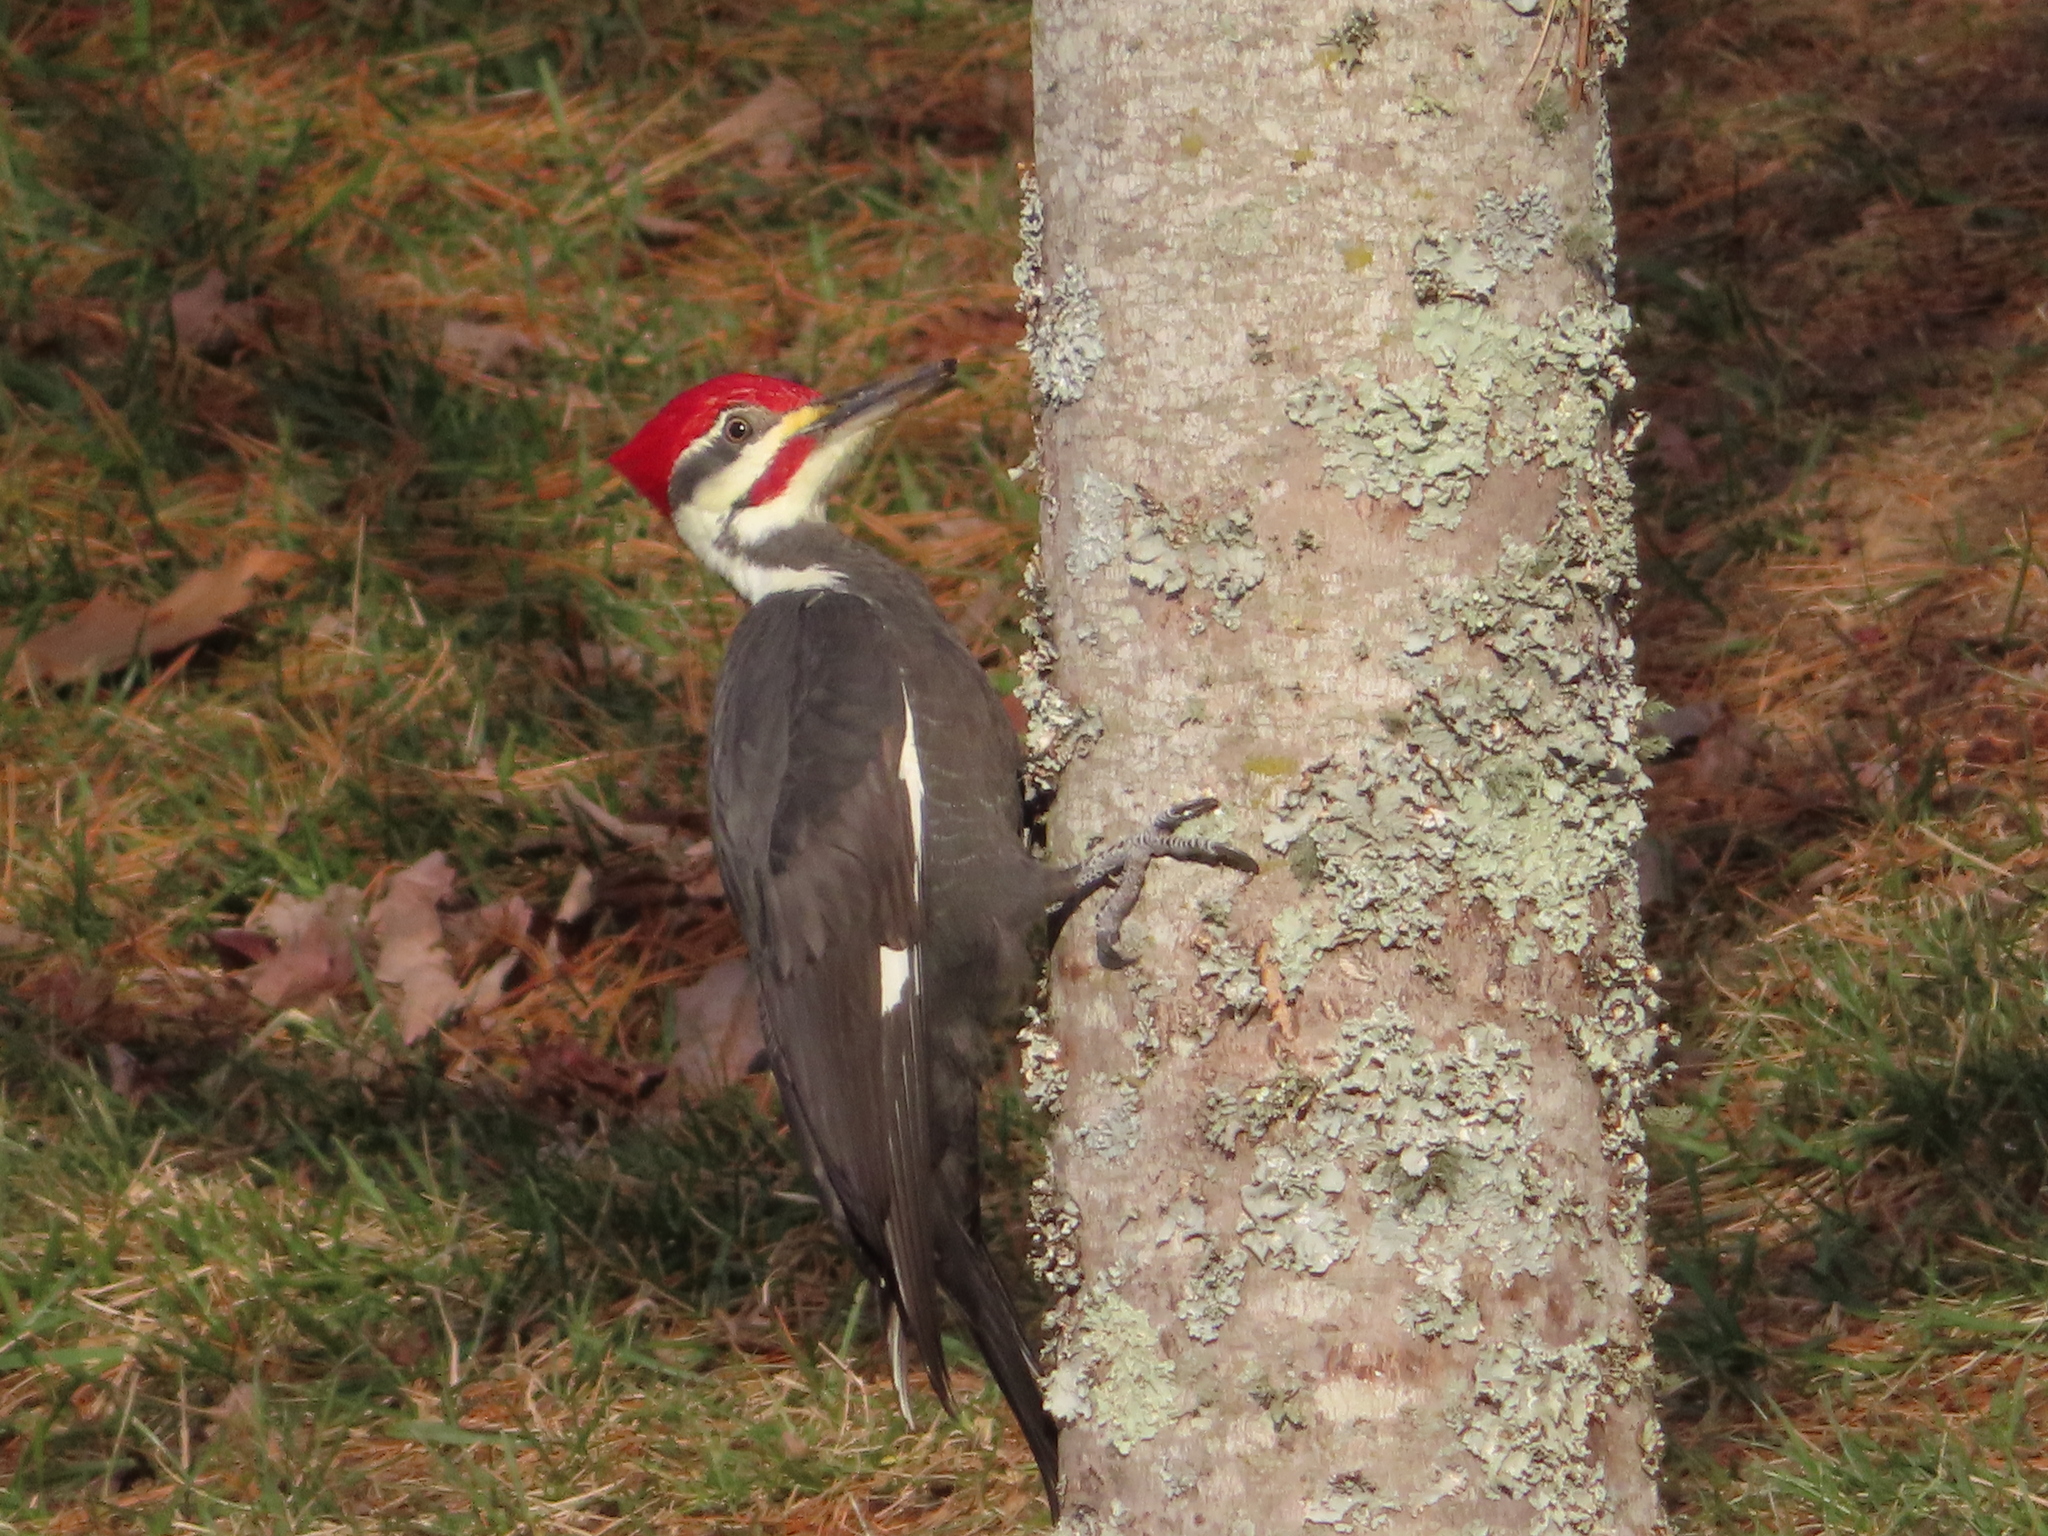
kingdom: Animalia
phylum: Chordata
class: Aves
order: Piciformes
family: Picidae
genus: Dryocopus
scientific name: Dryocopus pileatus
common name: Pileated woodpecker
